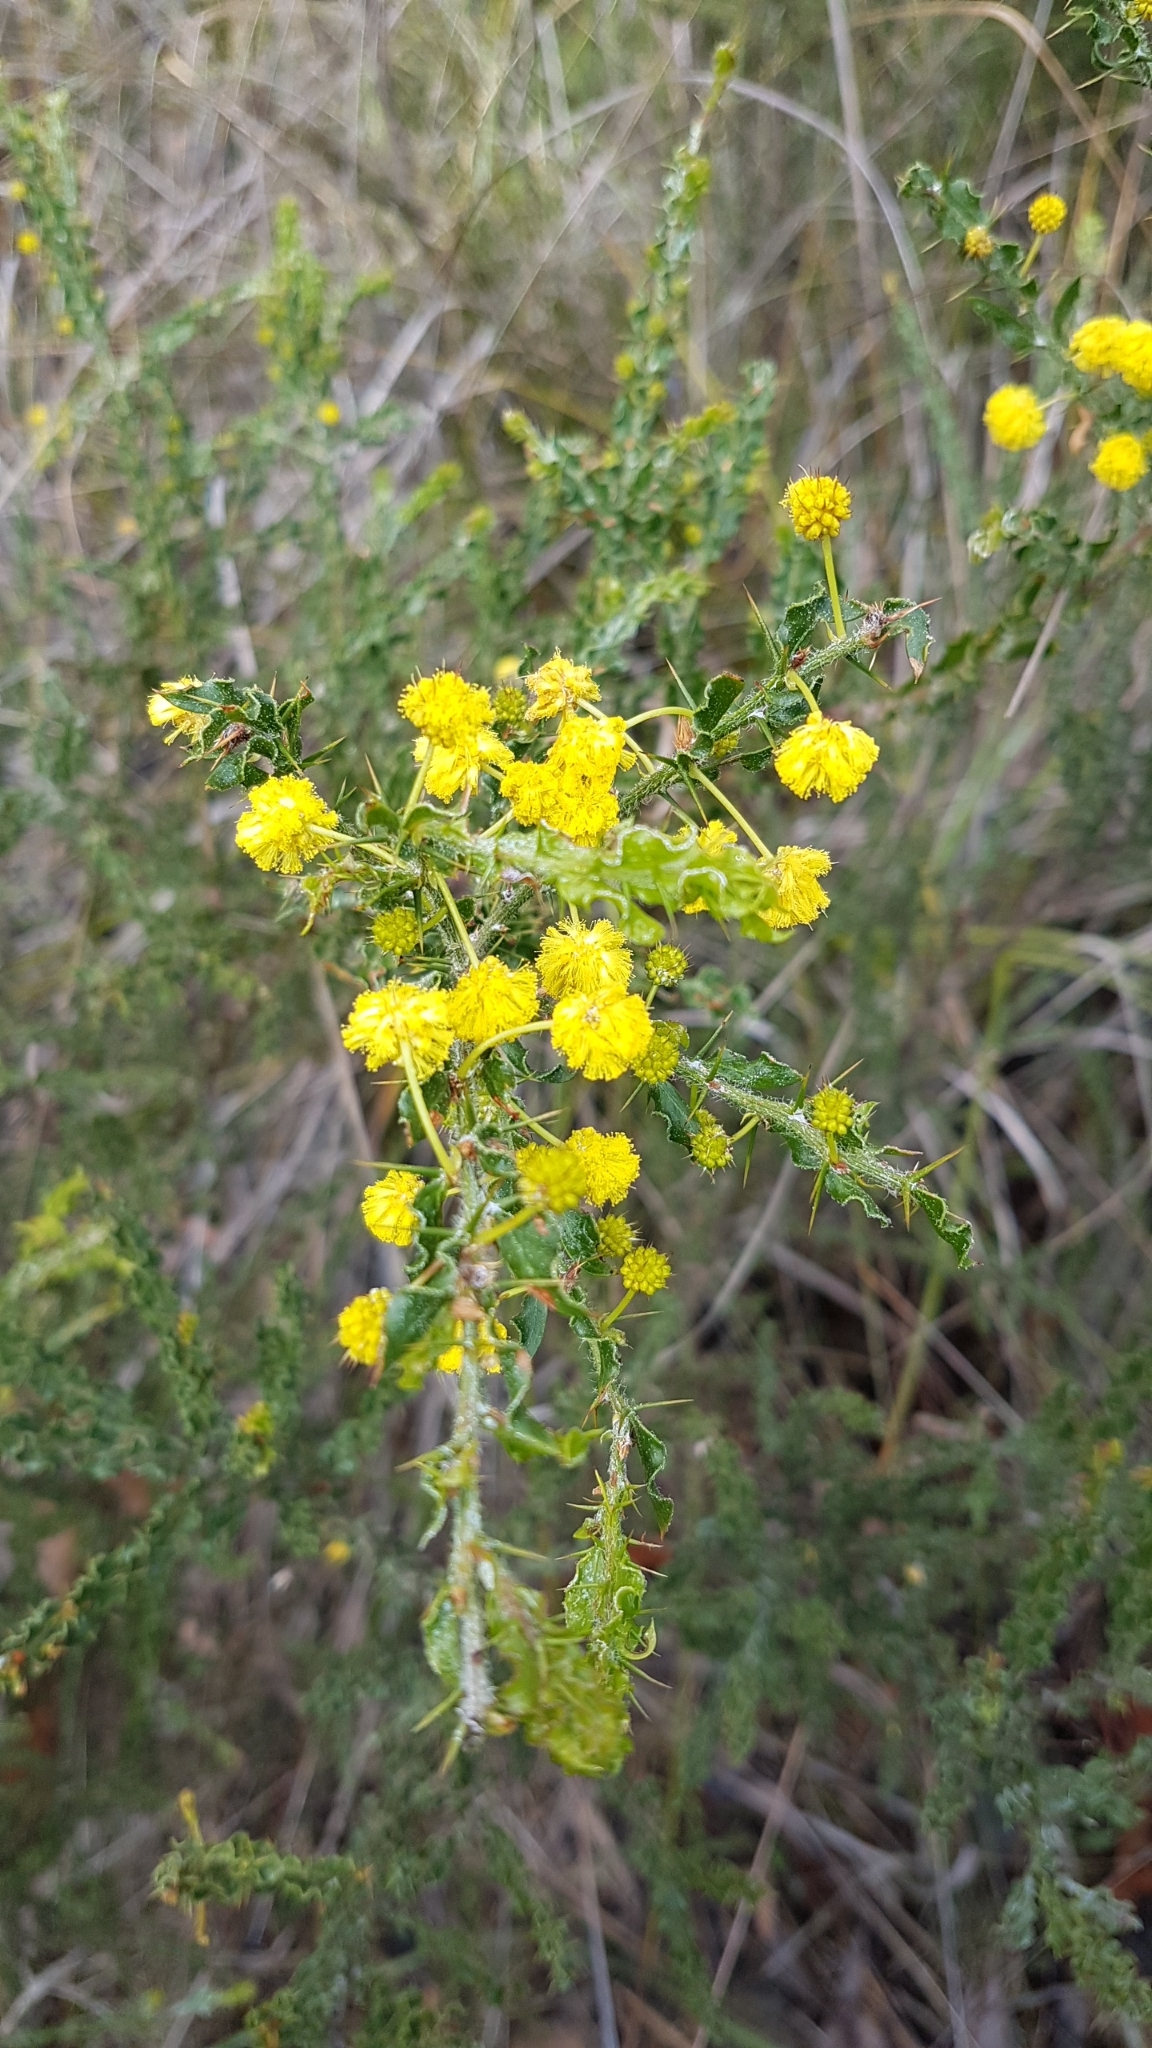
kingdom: Plantae
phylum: Tracheophyta
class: Magnoliopsida
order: Fabales
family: Fabaceae
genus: Acacia
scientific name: Acacia paradoxa
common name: Paradox acacia
